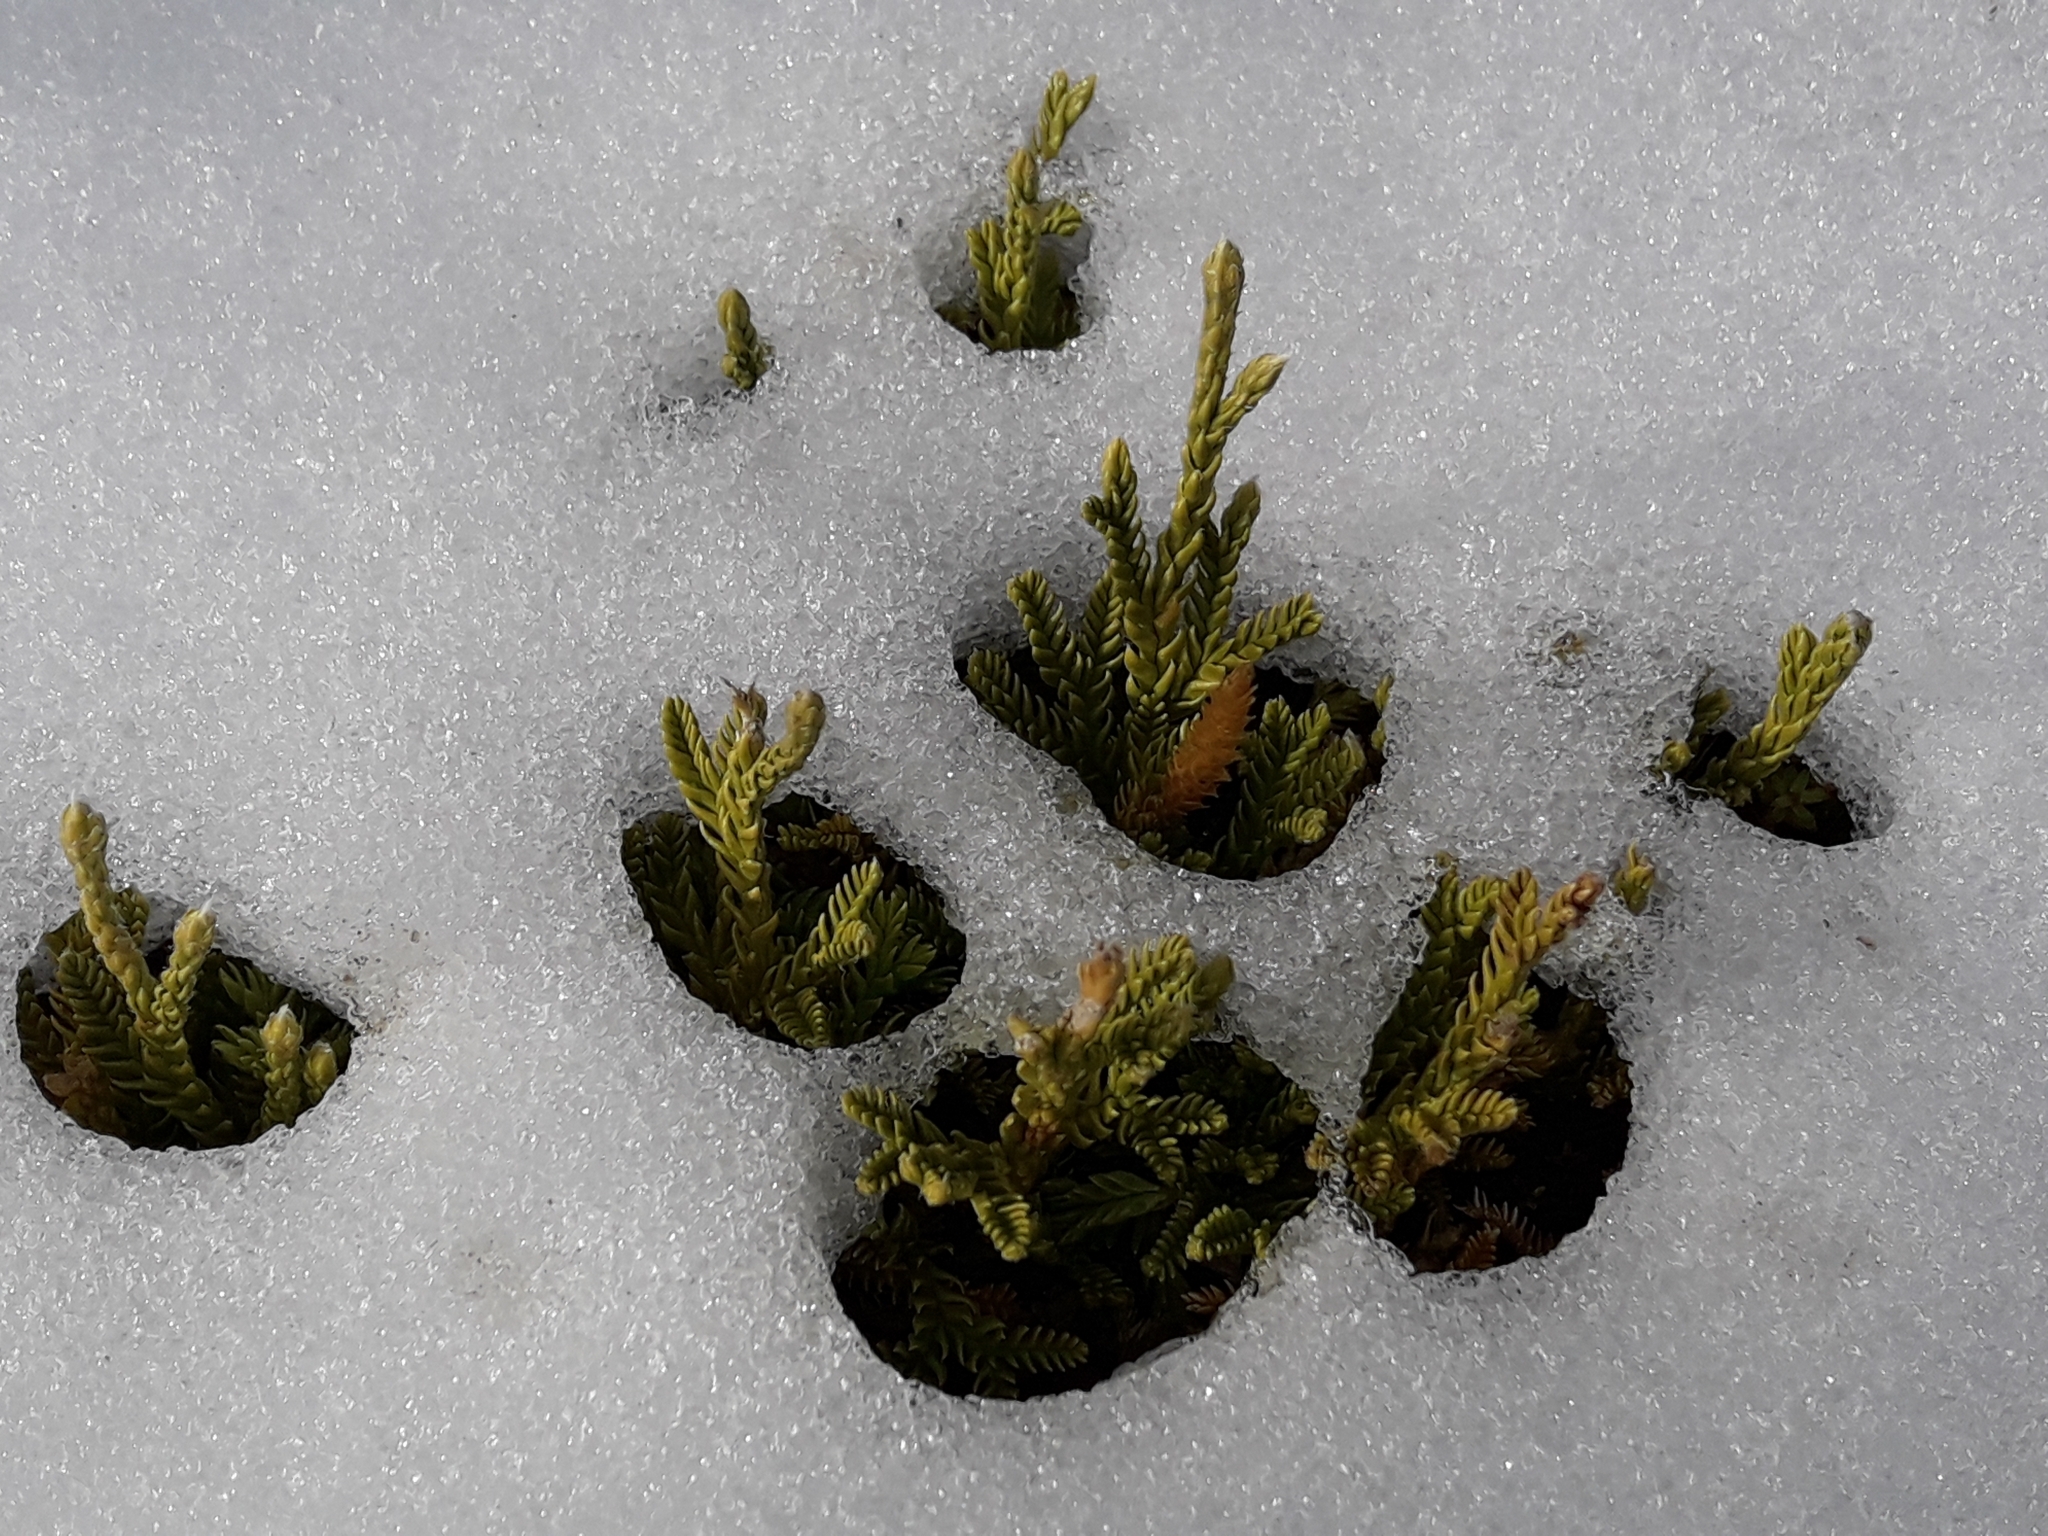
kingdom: Plantae
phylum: Tracheophyta
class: Lycopodiopsida
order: Lycopodiales
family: Lycopodiaceae
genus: Diphasium
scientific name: Diphasium scariosum
